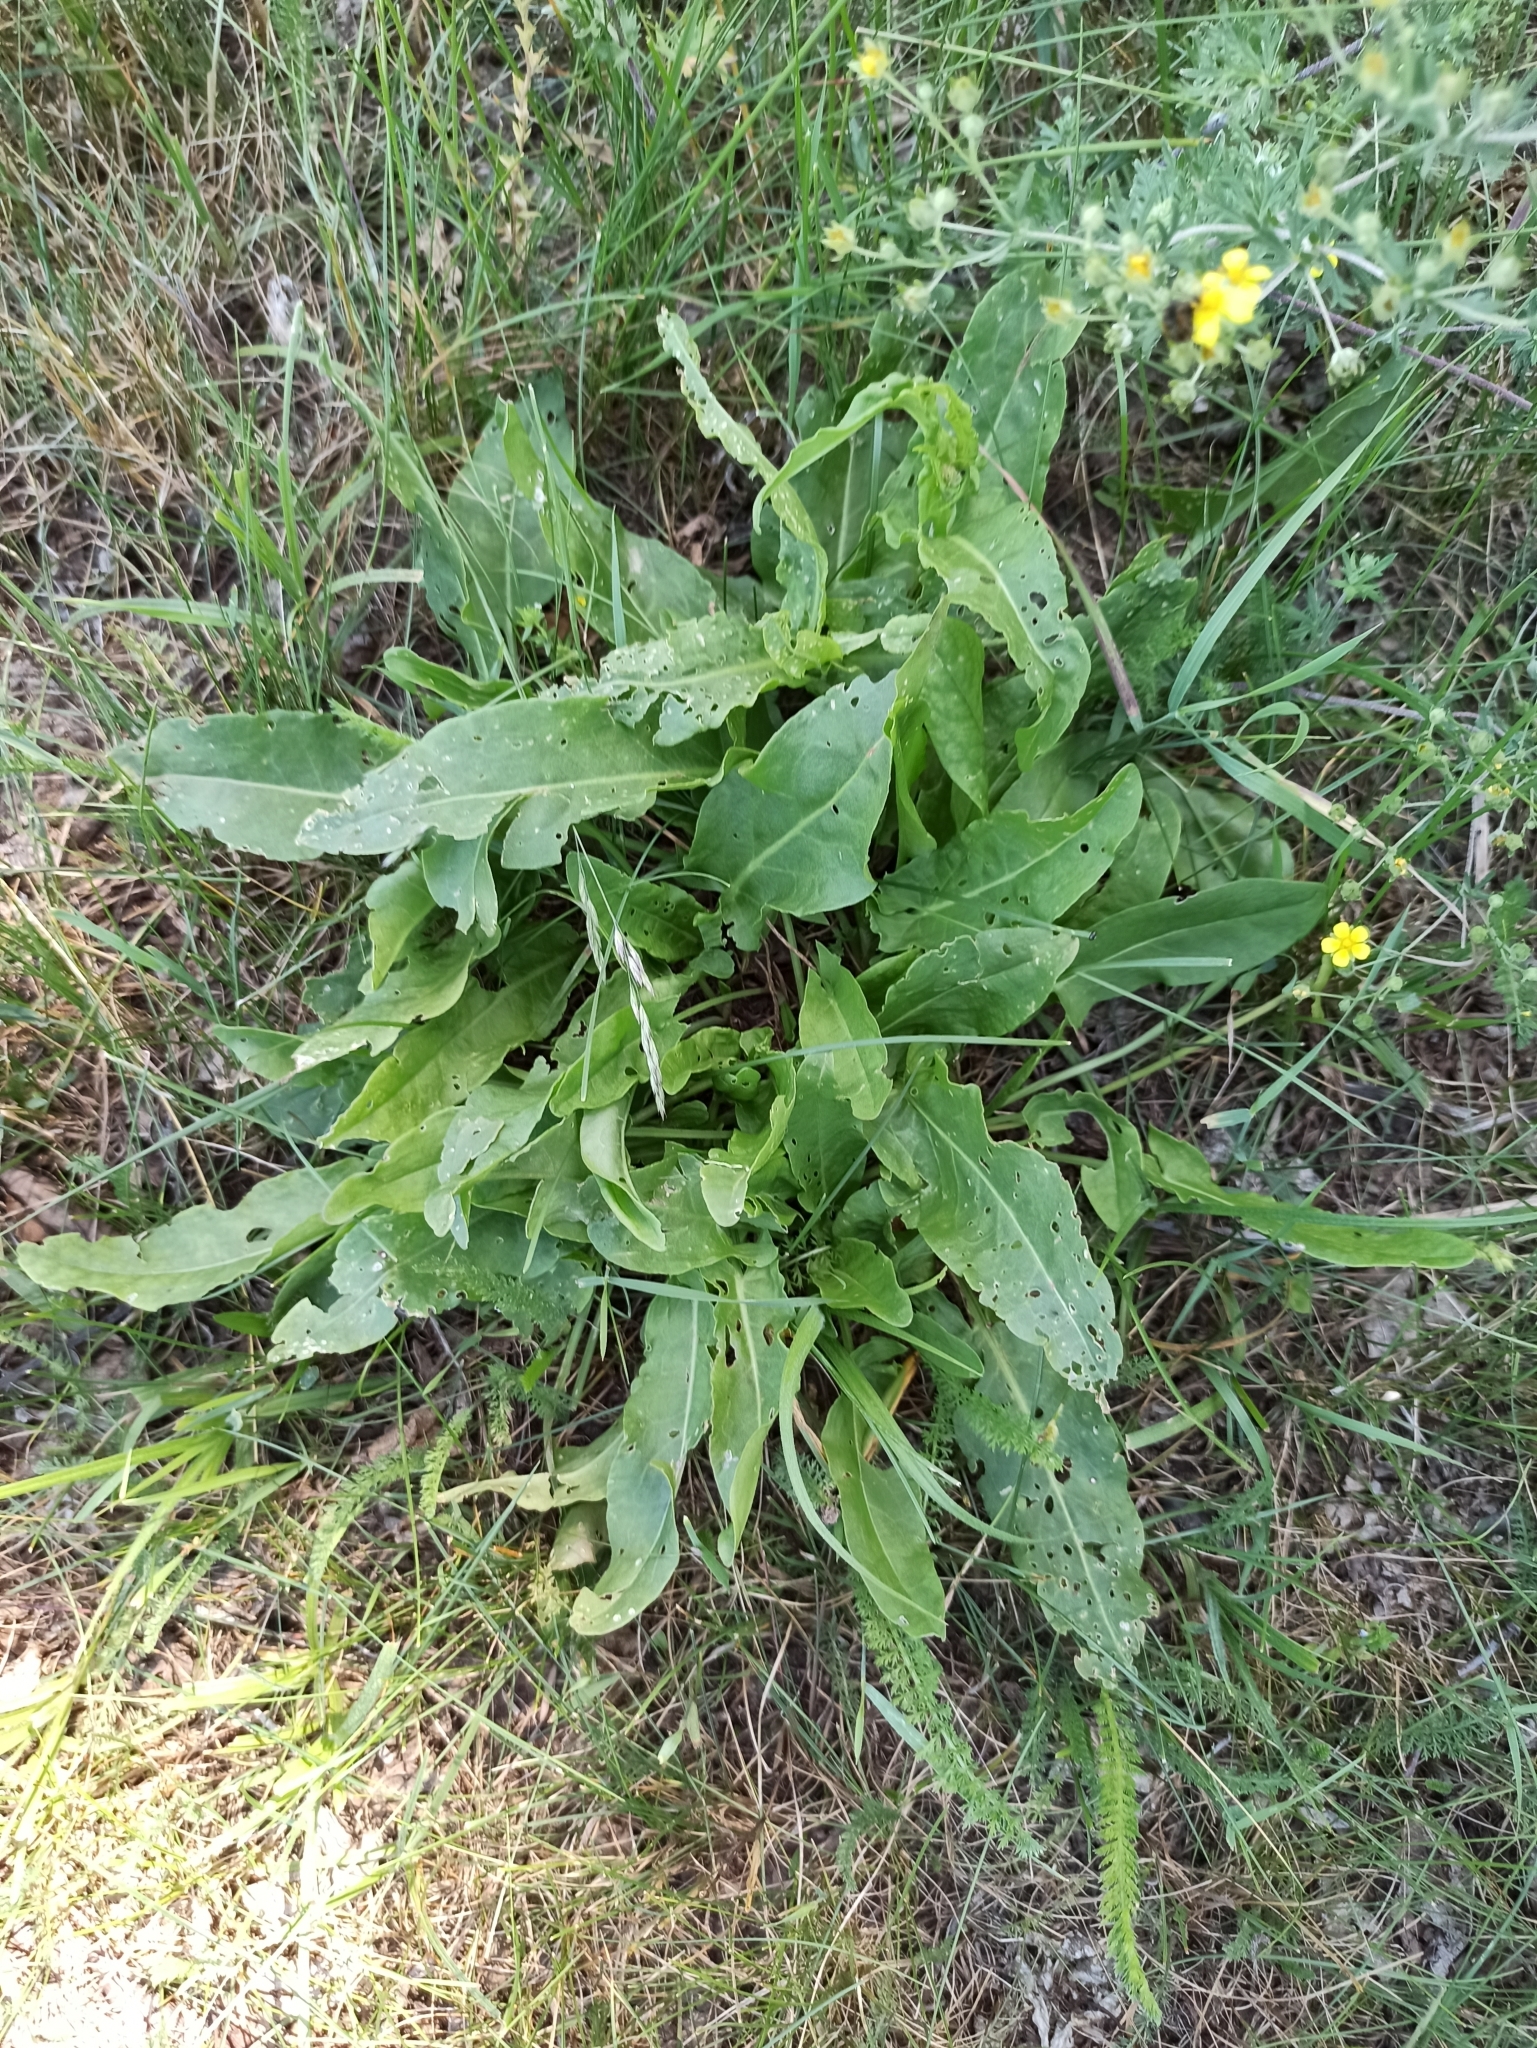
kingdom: Plantae
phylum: Tracheophyta
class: Magnoliopsida
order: Caryophyllales
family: Polygonaceae
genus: Rumex
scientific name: Rumex acetosa
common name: Garden sorrel
